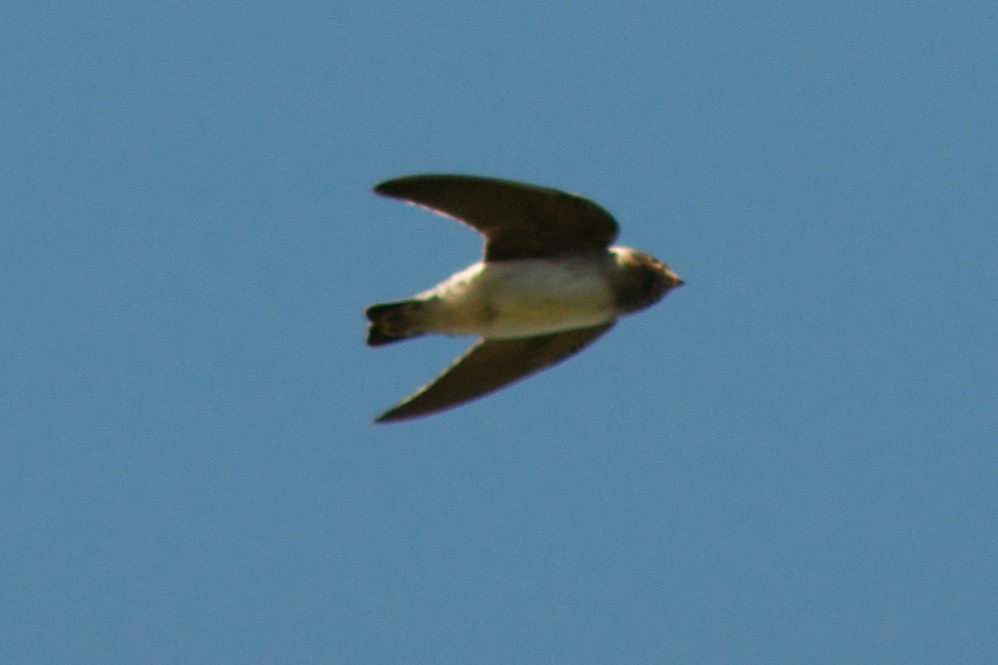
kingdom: Animalia
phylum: Chordata
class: Aves
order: Passeriformes
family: Hirundinidae
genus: Petrochelidon
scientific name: Petrochelidon pyrrhonota
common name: American cliff swallow
